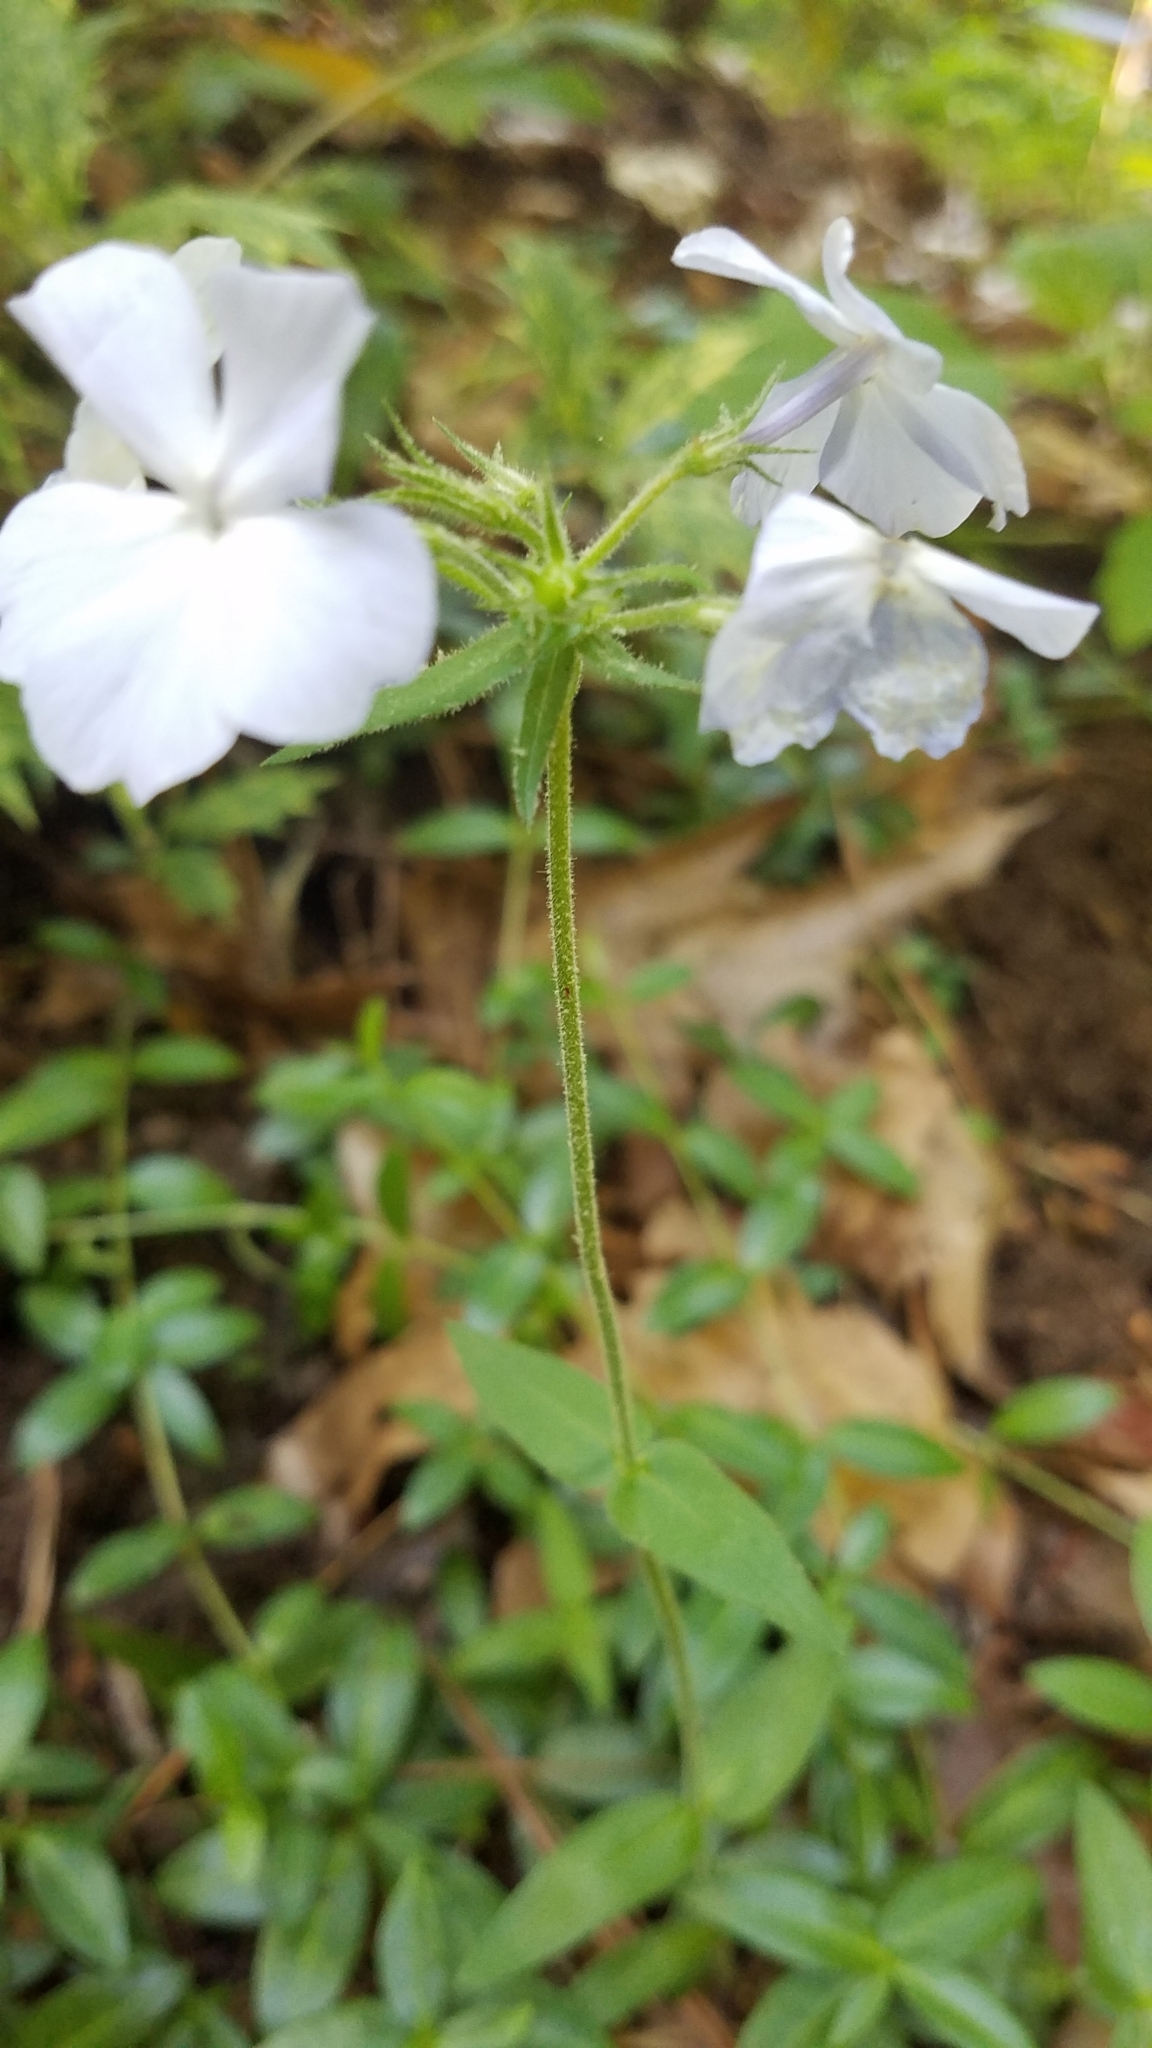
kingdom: Plantae
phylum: Tracheophyta
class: Magnoliopsida
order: Ericales
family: Polemoniaceae
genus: Phlox
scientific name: Phlox divaricata
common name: Blue phlox
